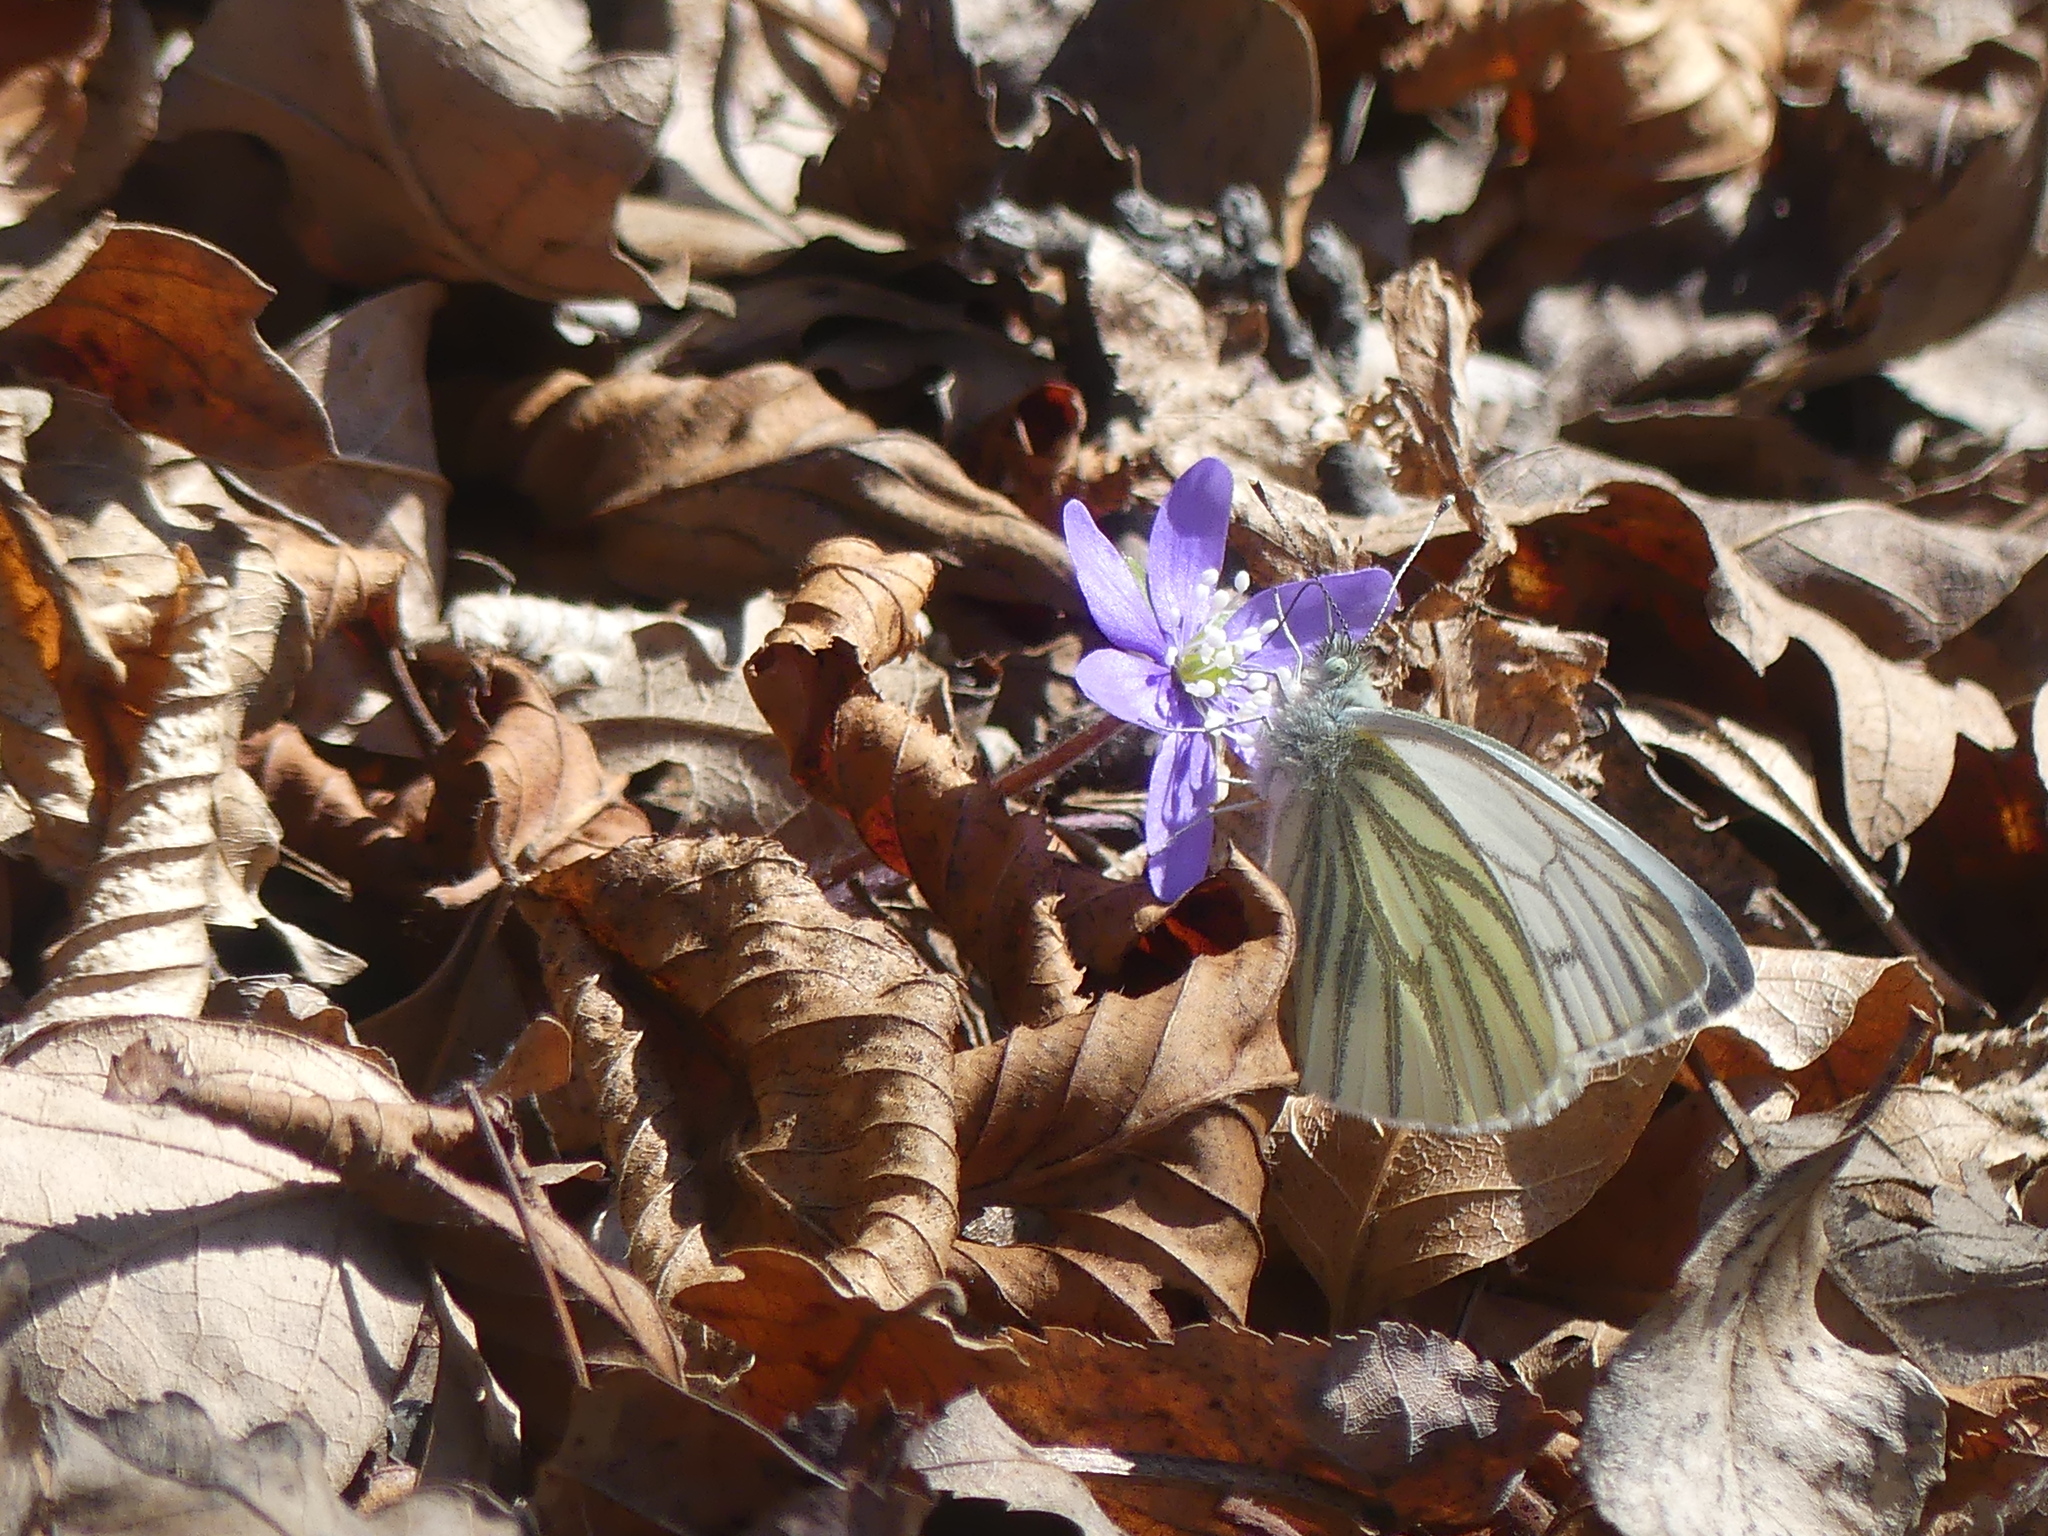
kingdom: Plantae
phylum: Tracheophyta
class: Magnoliopsida
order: Ranunculales
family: Ranunculaceae
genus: Hepatica
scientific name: Hepatica nobilis
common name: Liverleaf
